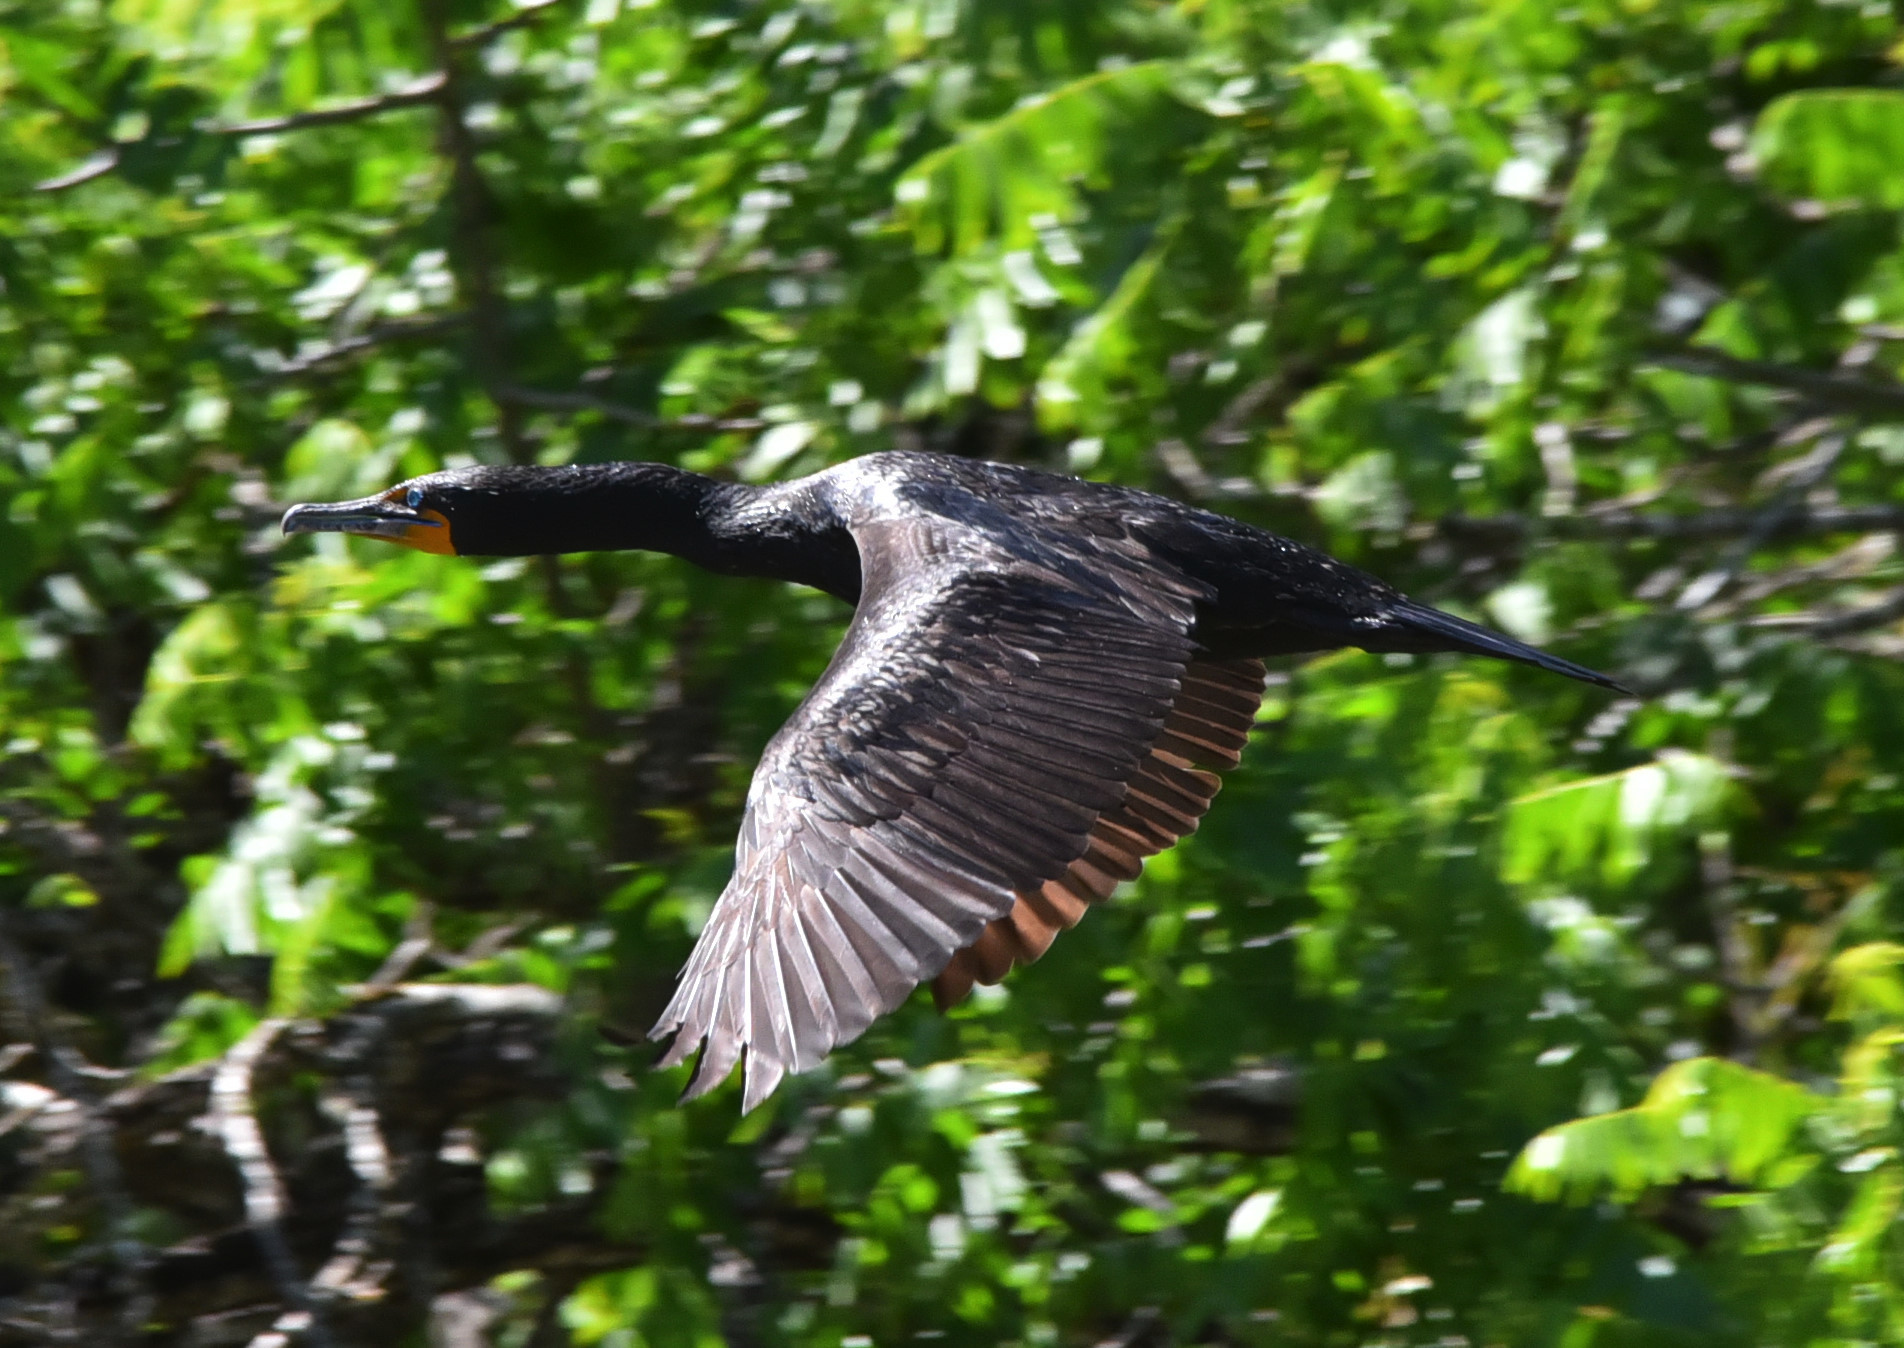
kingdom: Animalia
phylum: Chordata
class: Aves
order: Suliformes
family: Phalacrocoracidae
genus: Phalacrocorax
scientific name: Phalacrocorax auritus
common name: Double-crested cormorant
